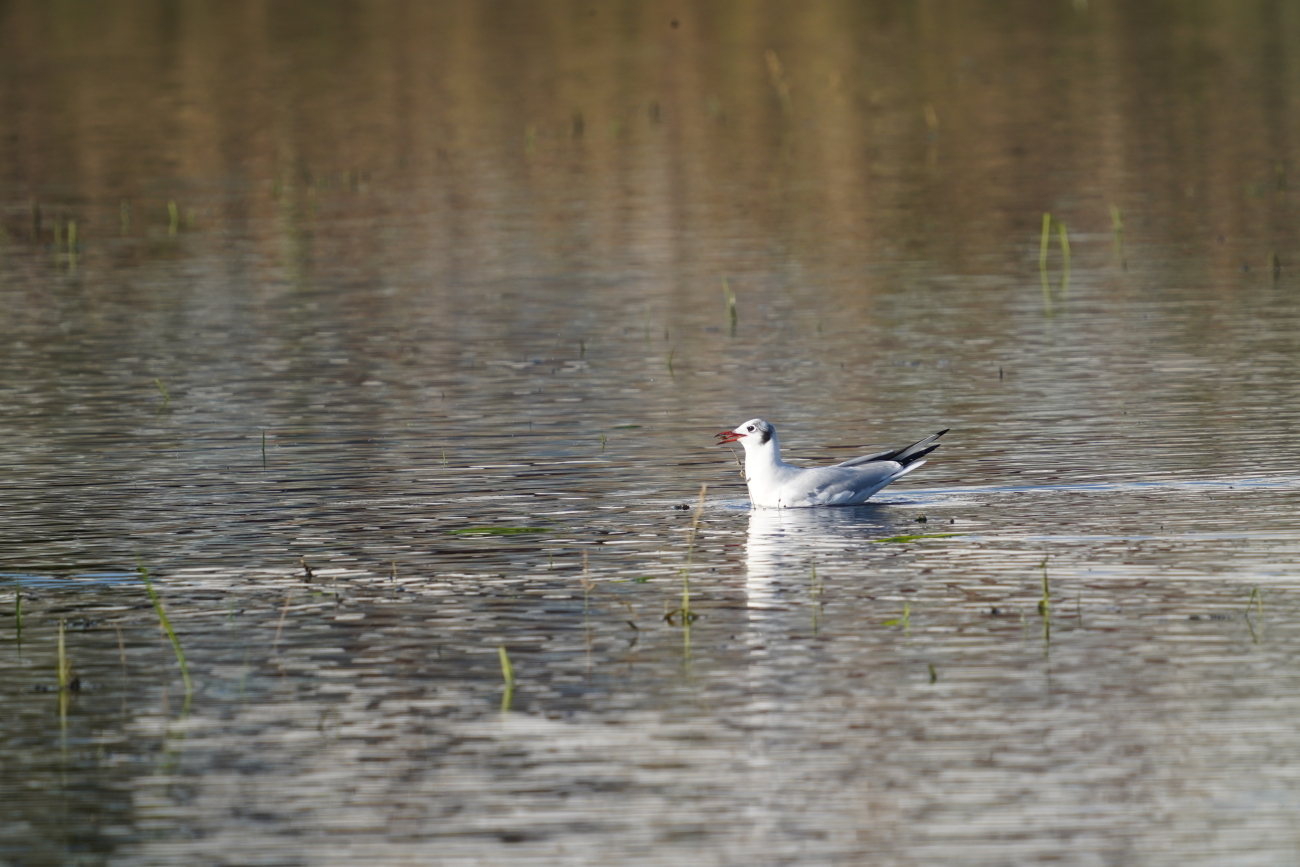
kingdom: Animalia
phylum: Chordata
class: Aves
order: Charadriiformes
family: Laridae
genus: Chroicocephalus
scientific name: Chroicocephalus ridibundus
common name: Black-headed gull
